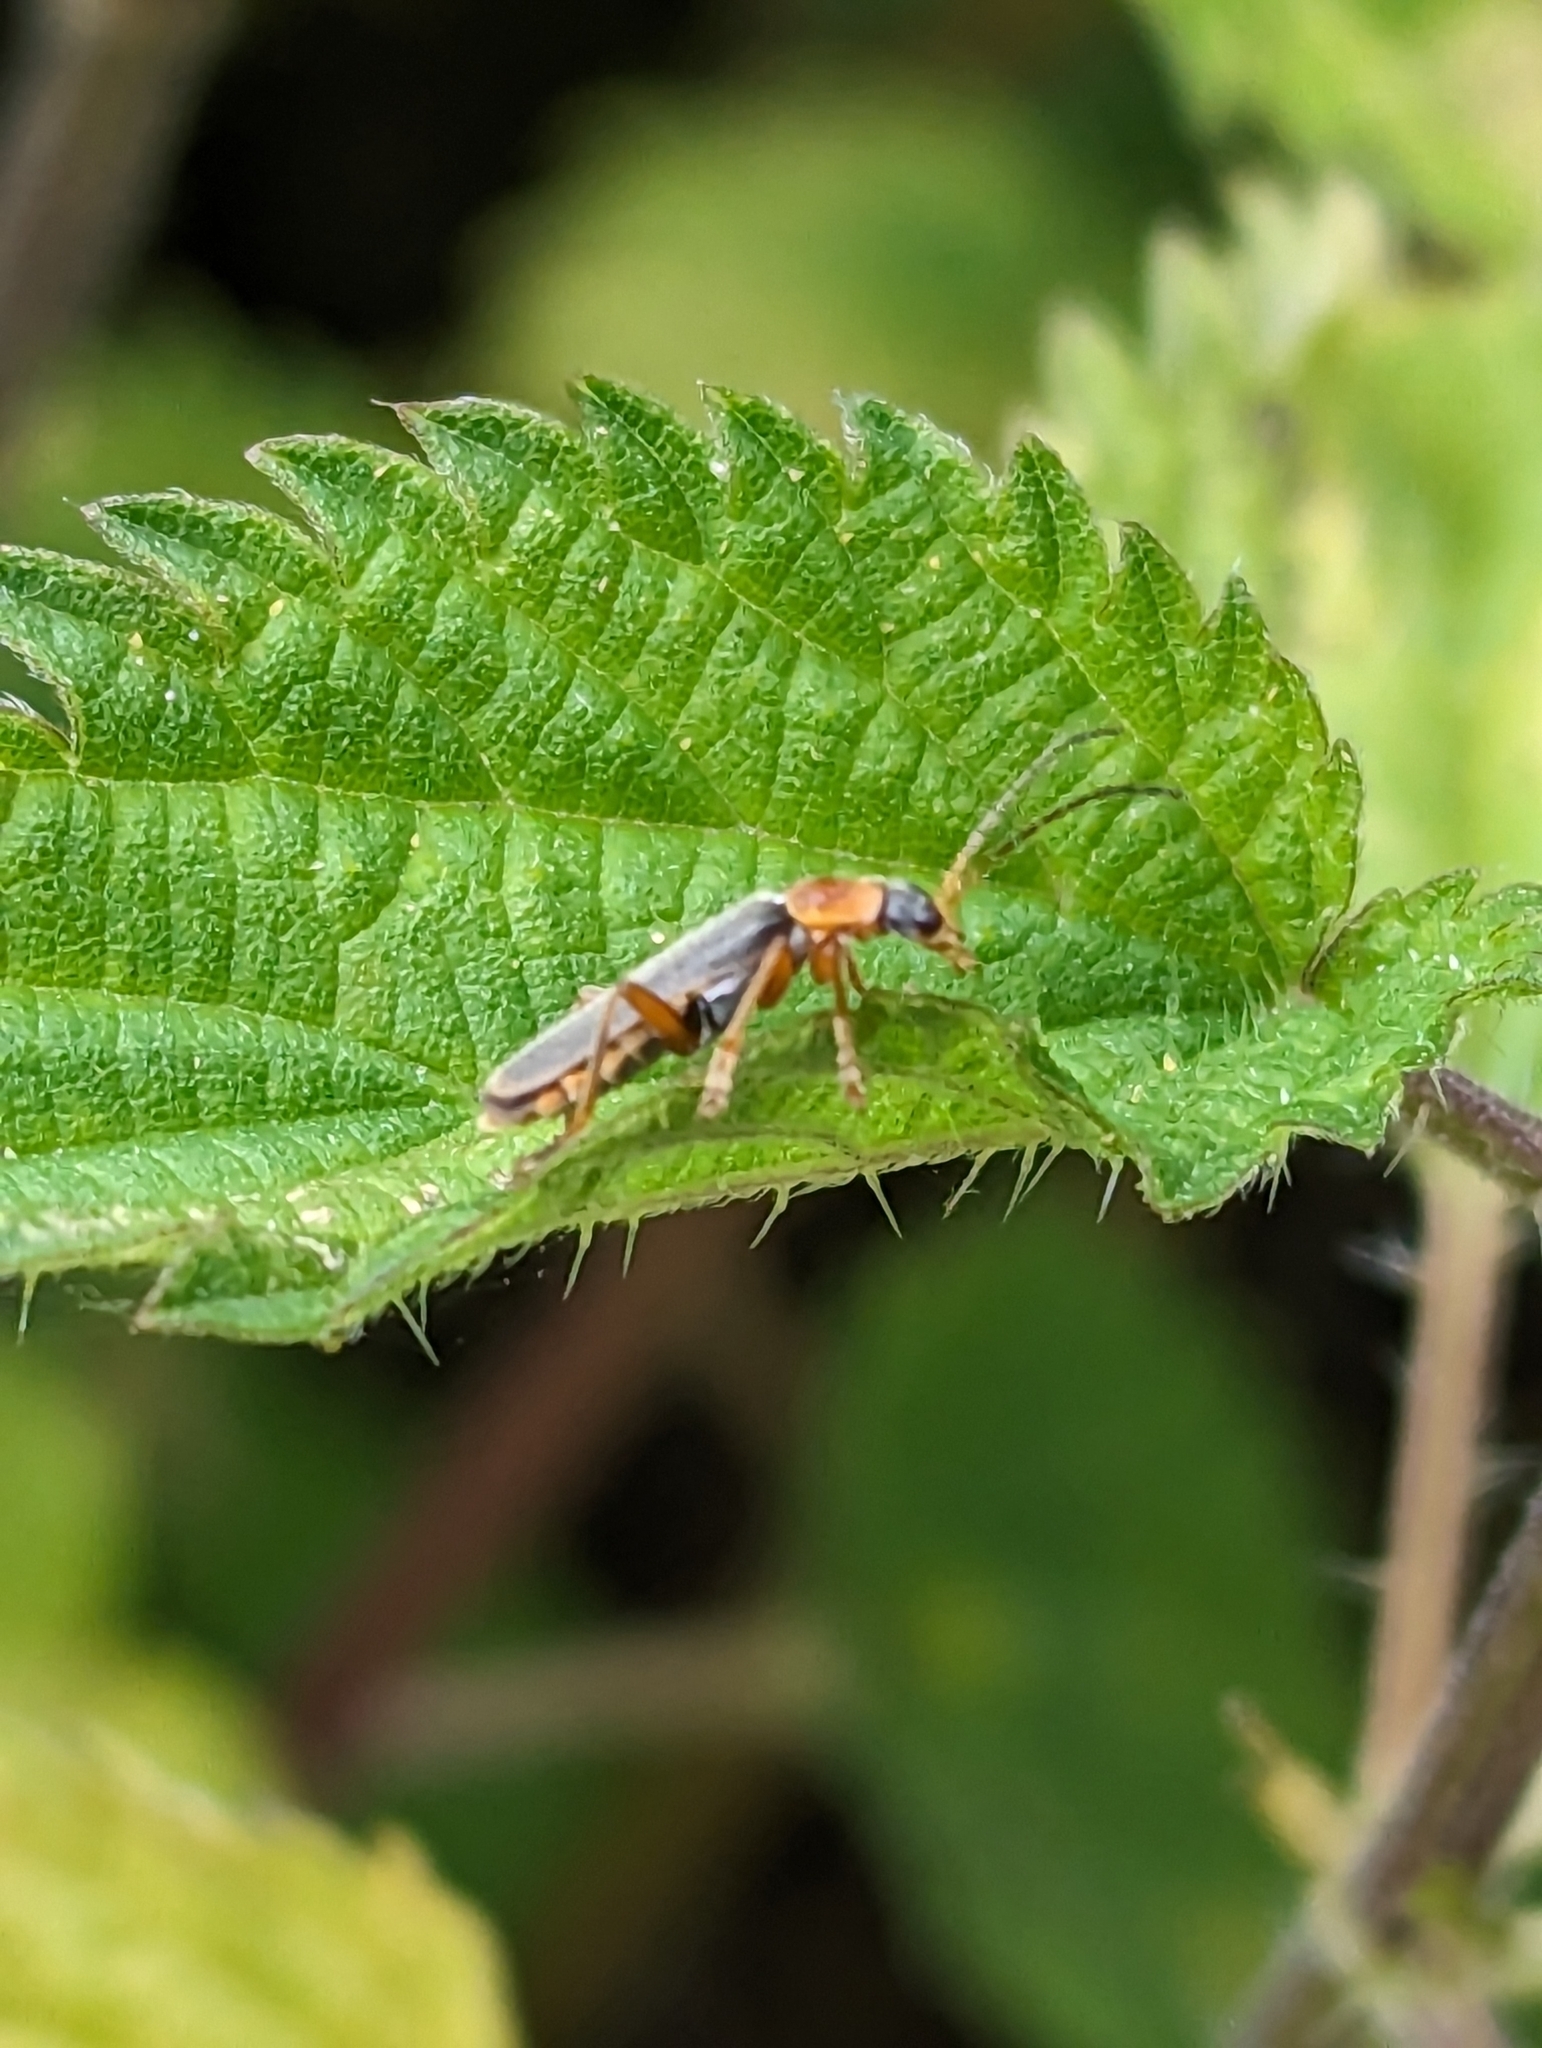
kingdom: Animalia
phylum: Arthropoda
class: Insecta
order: Coleoptera
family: Cantharidae
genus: Cantharis
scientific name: Cantharis lateralis
